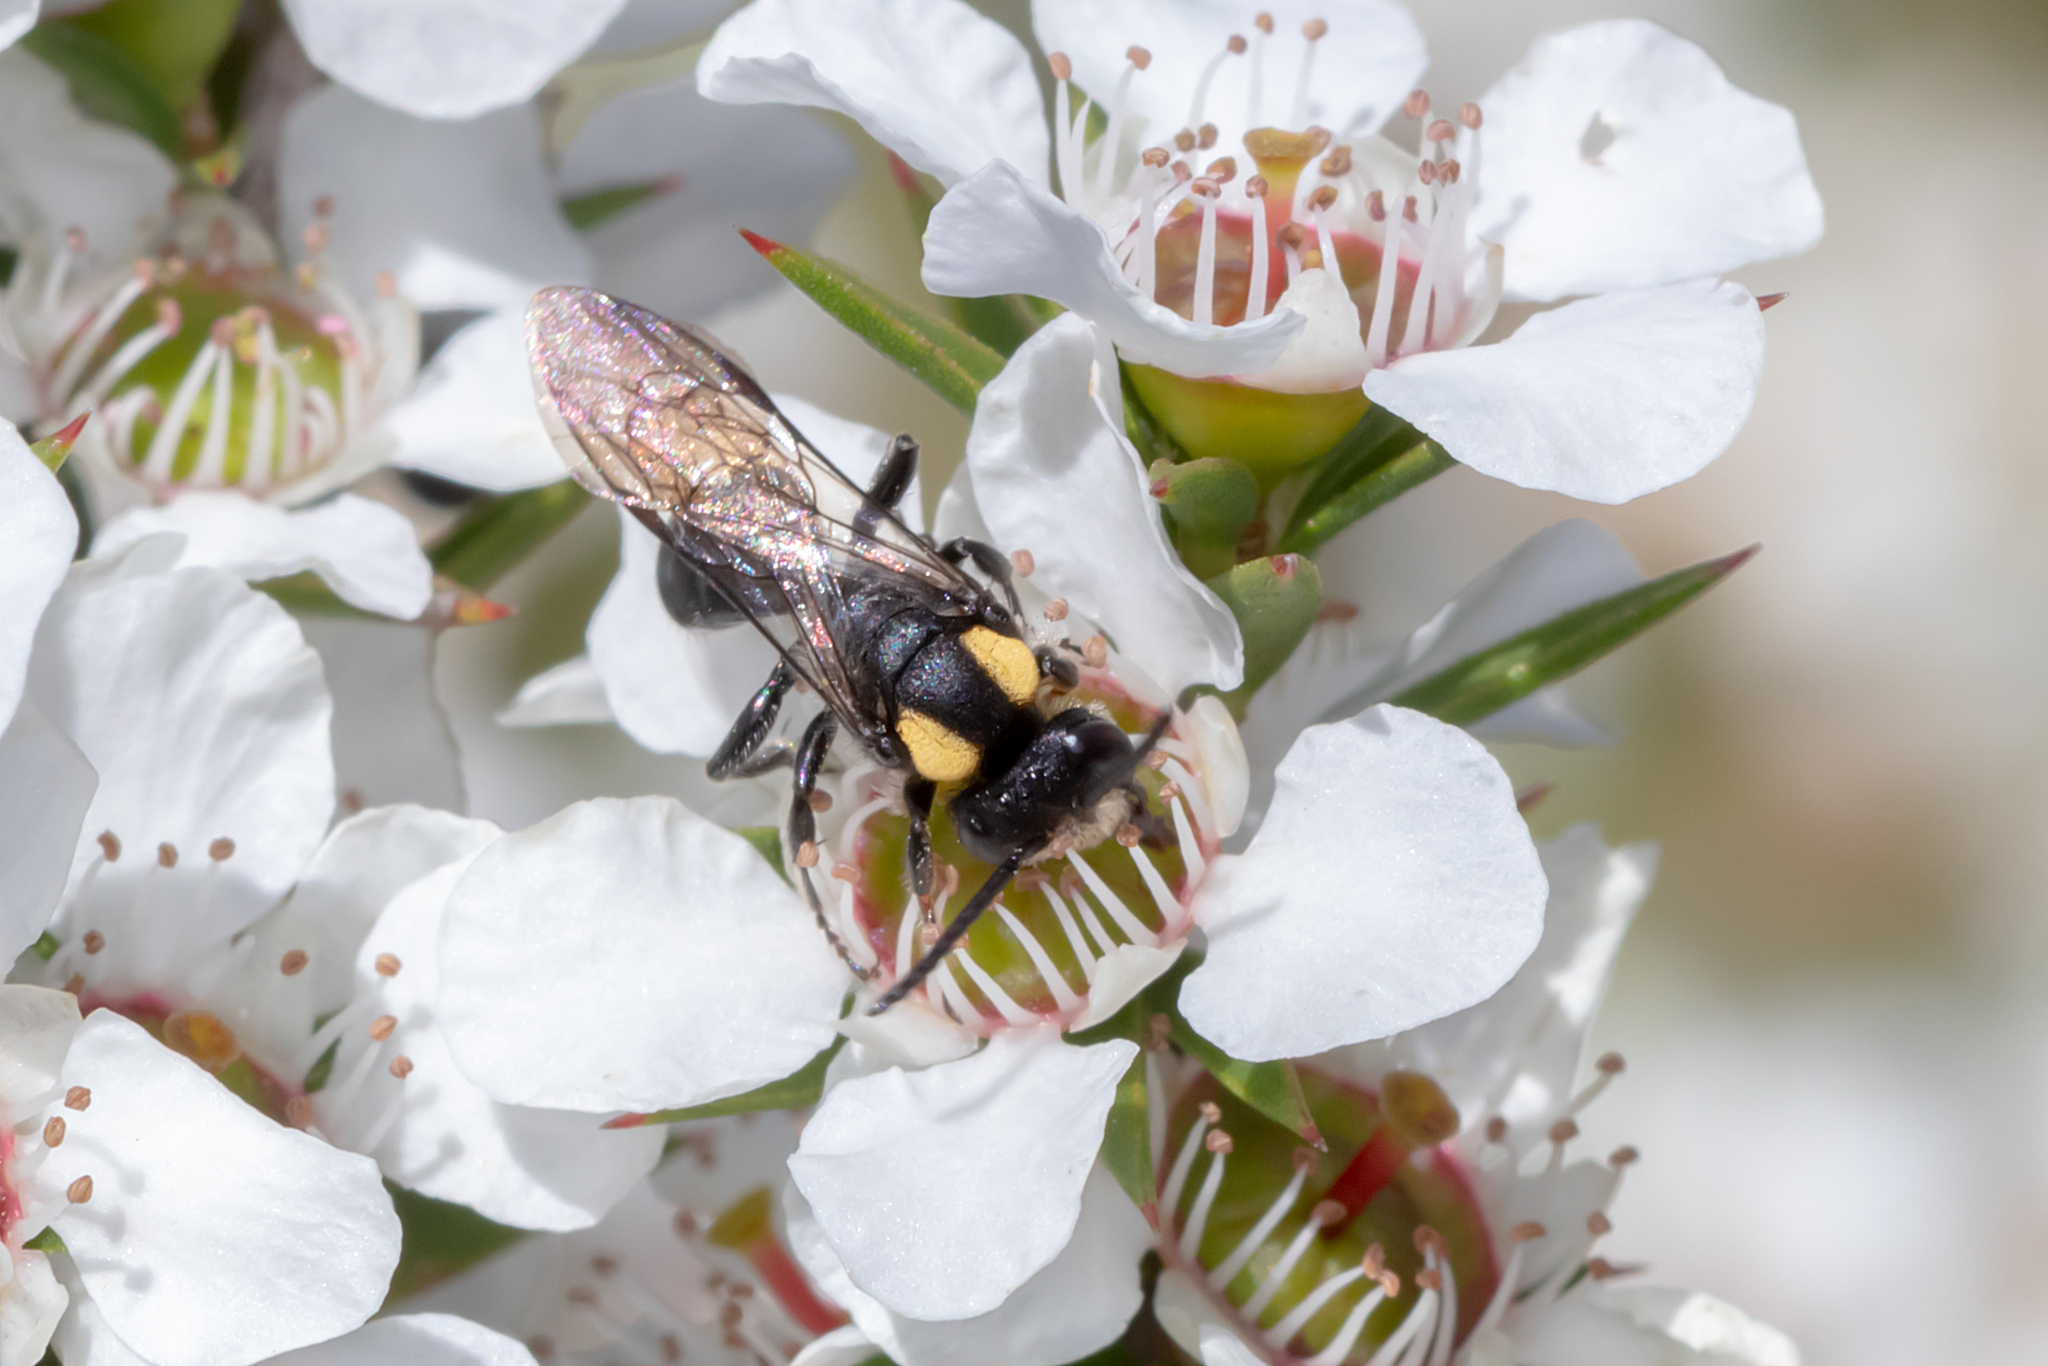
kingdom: Animalia
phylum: Arthropoda
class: Insecta
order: Hymenoptera
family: Colletidae
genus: Leioproctus
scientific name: Leioproctus irroratus
